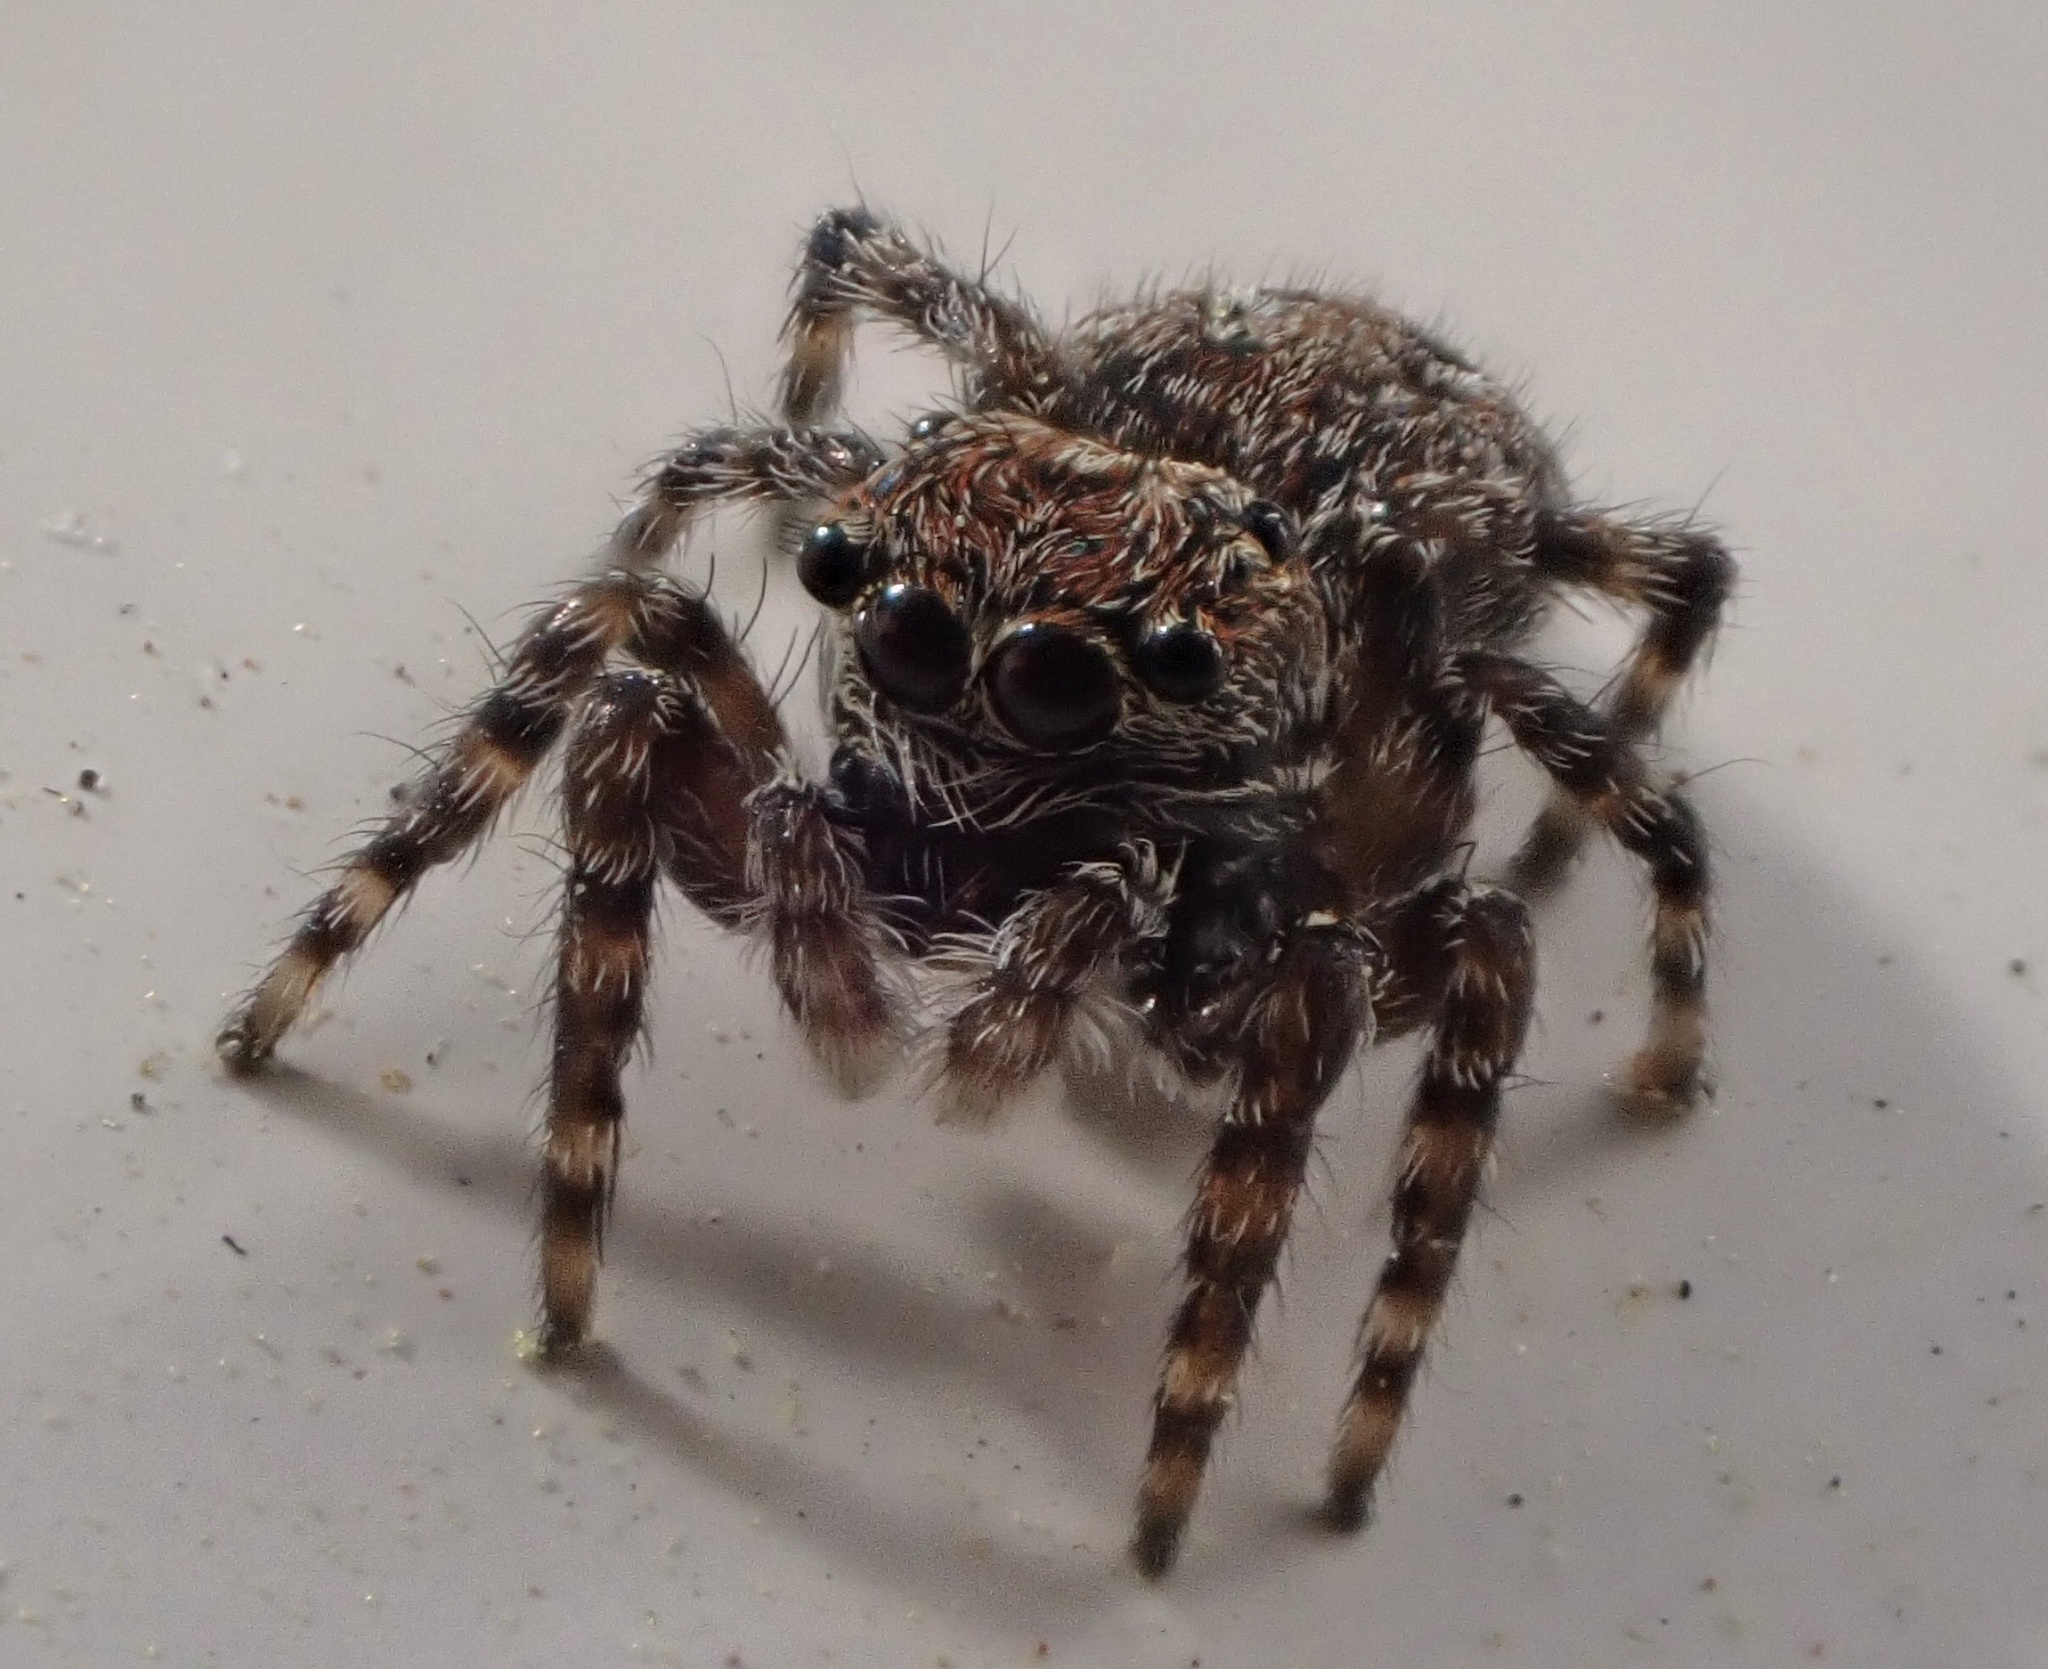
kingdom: Animalia
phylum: Arthropoda
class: Arachnida
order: Araneae
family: Salticidae
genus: Attulus
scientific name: Attulus pubescens
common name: Jumping spider
